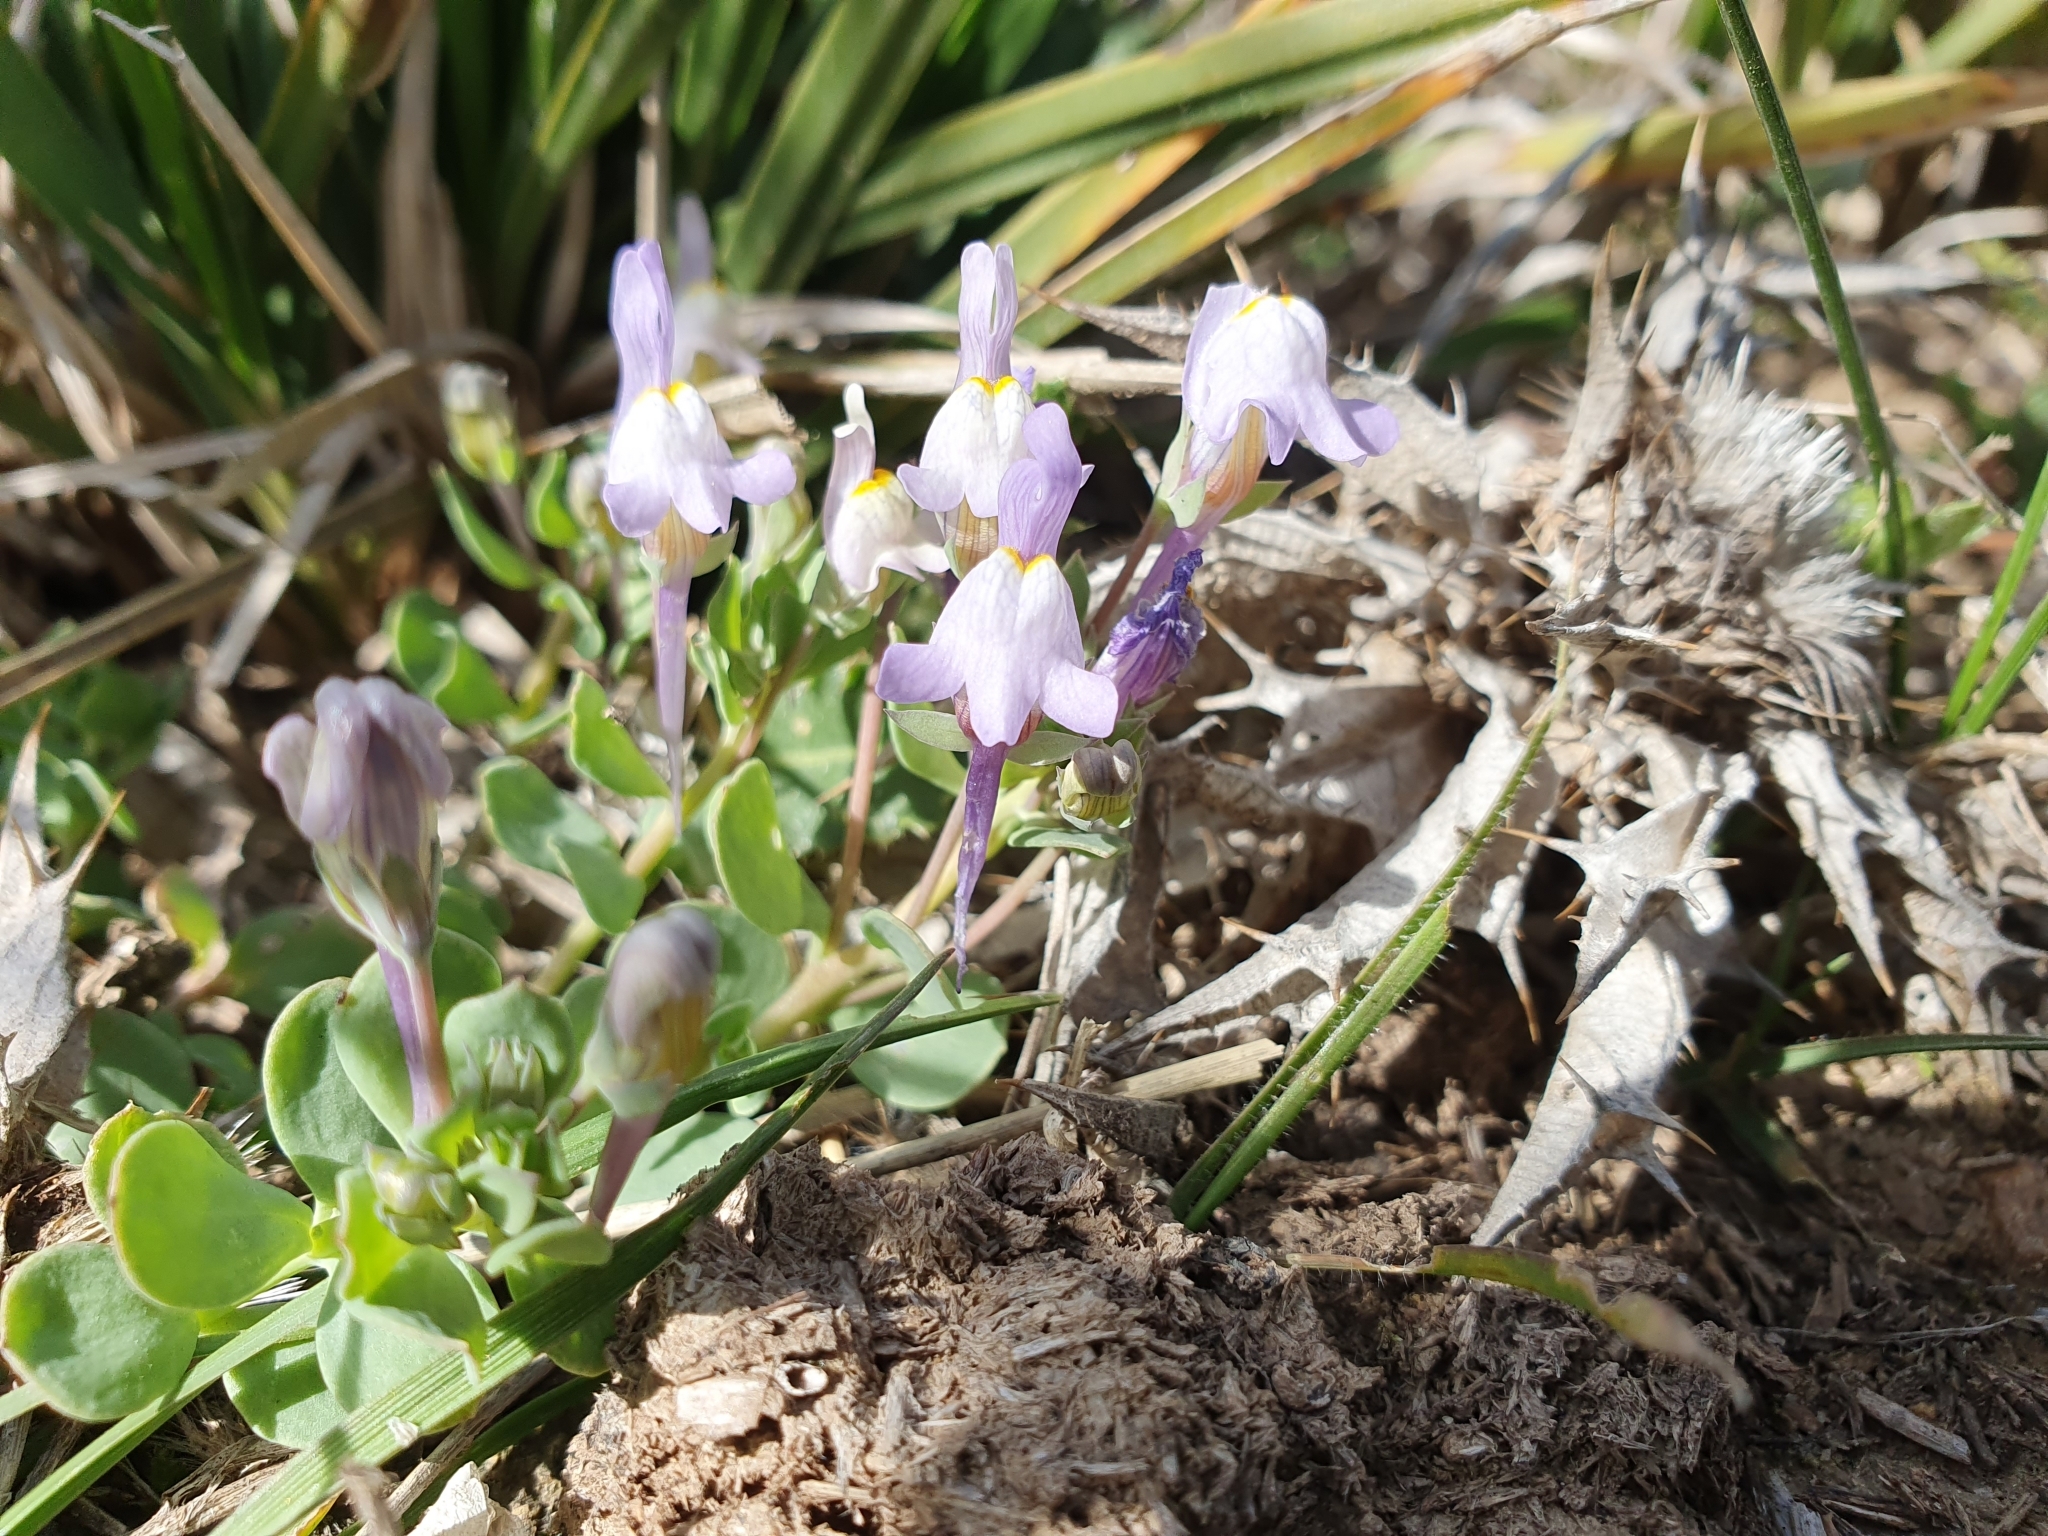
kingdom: Plantae
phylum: Tracheophyta
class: Magnoliopsida
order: Lamiales
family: Plantaginaceae
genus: Linaria
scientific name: Linaria reflexa
